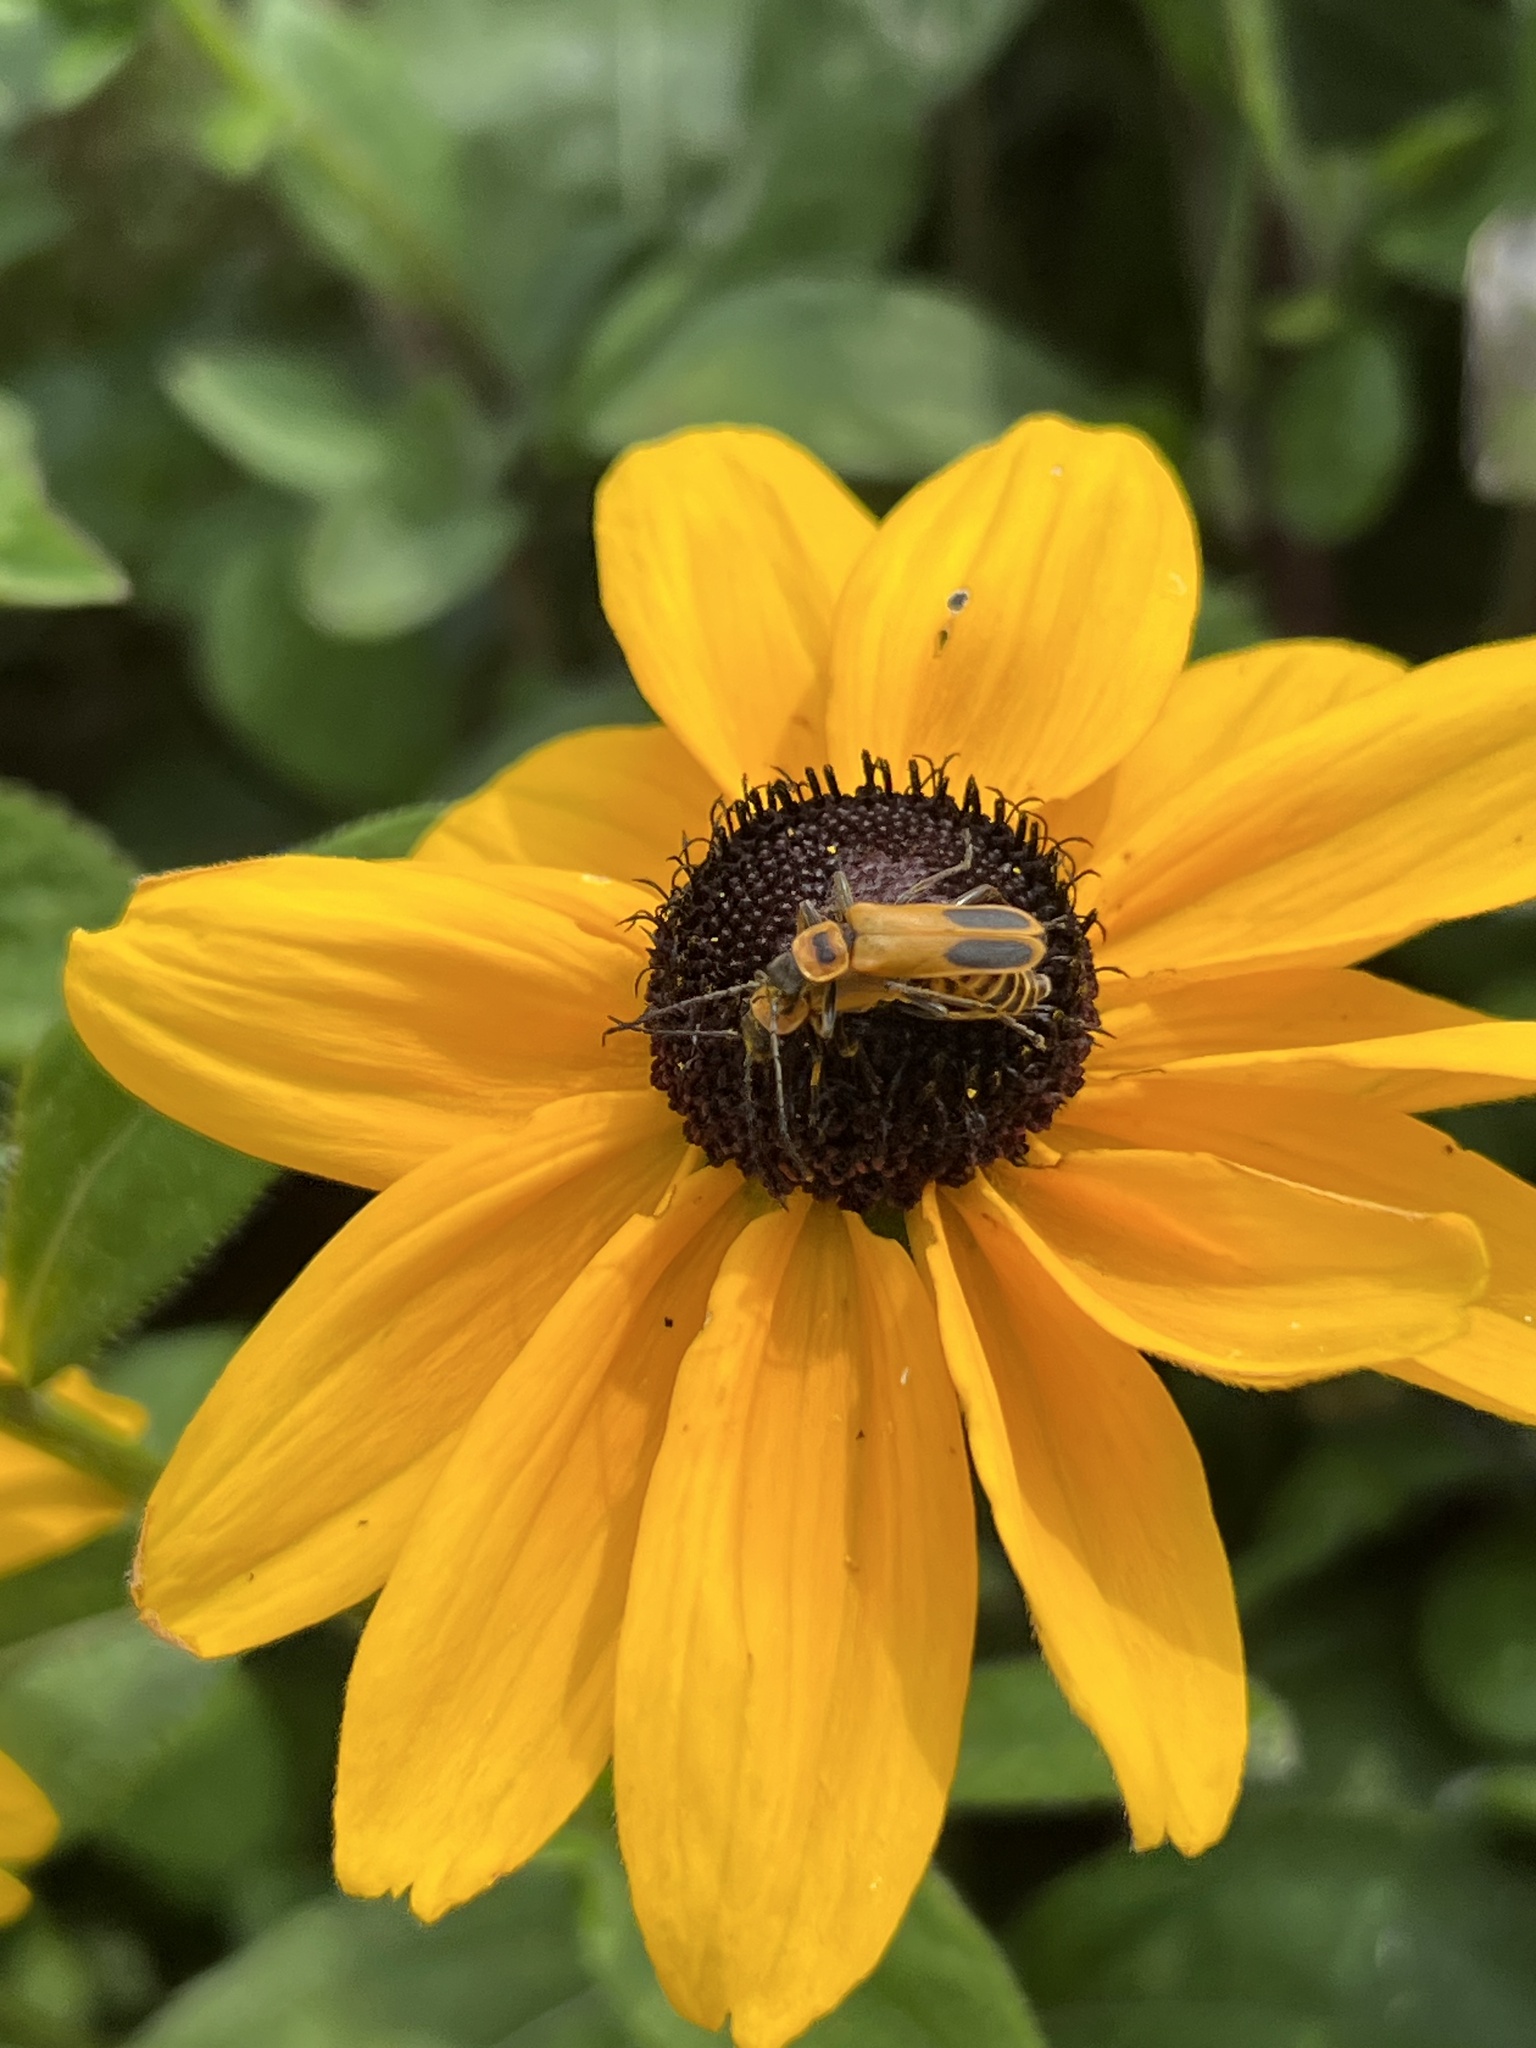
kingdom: Animalia
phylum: Arthropoda
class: Insecta
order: Coleoptera
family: Cantharidae
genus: Chauliognathus
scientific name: Chauliognathus pensylvanicus
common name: Goldenrod soldier beetle
